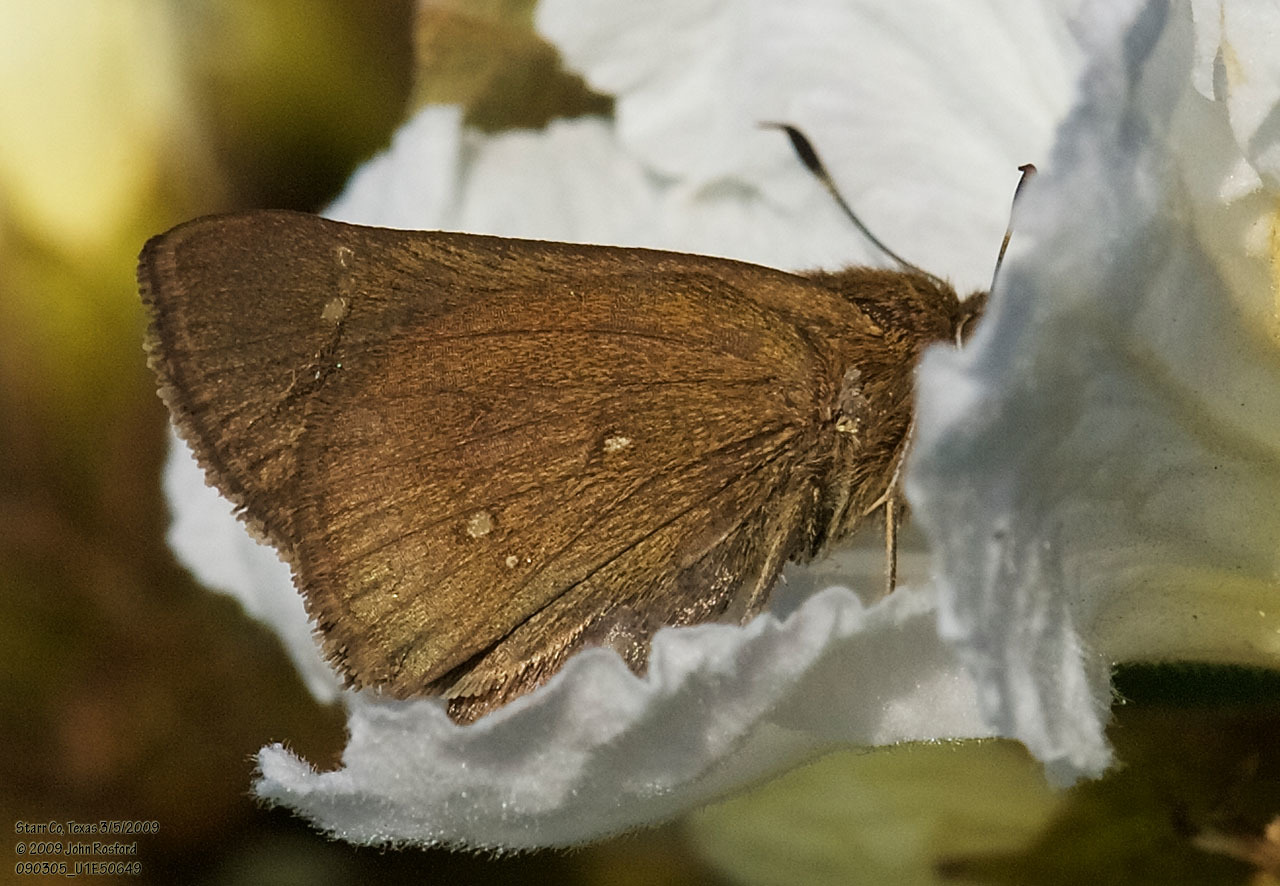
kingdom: Animalia
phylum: Arthropoda
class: Insecta
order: Lepidoptera
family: Hesperiidae
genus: Decinea
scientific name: Decinea percosius
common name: Double-dotted skipper
